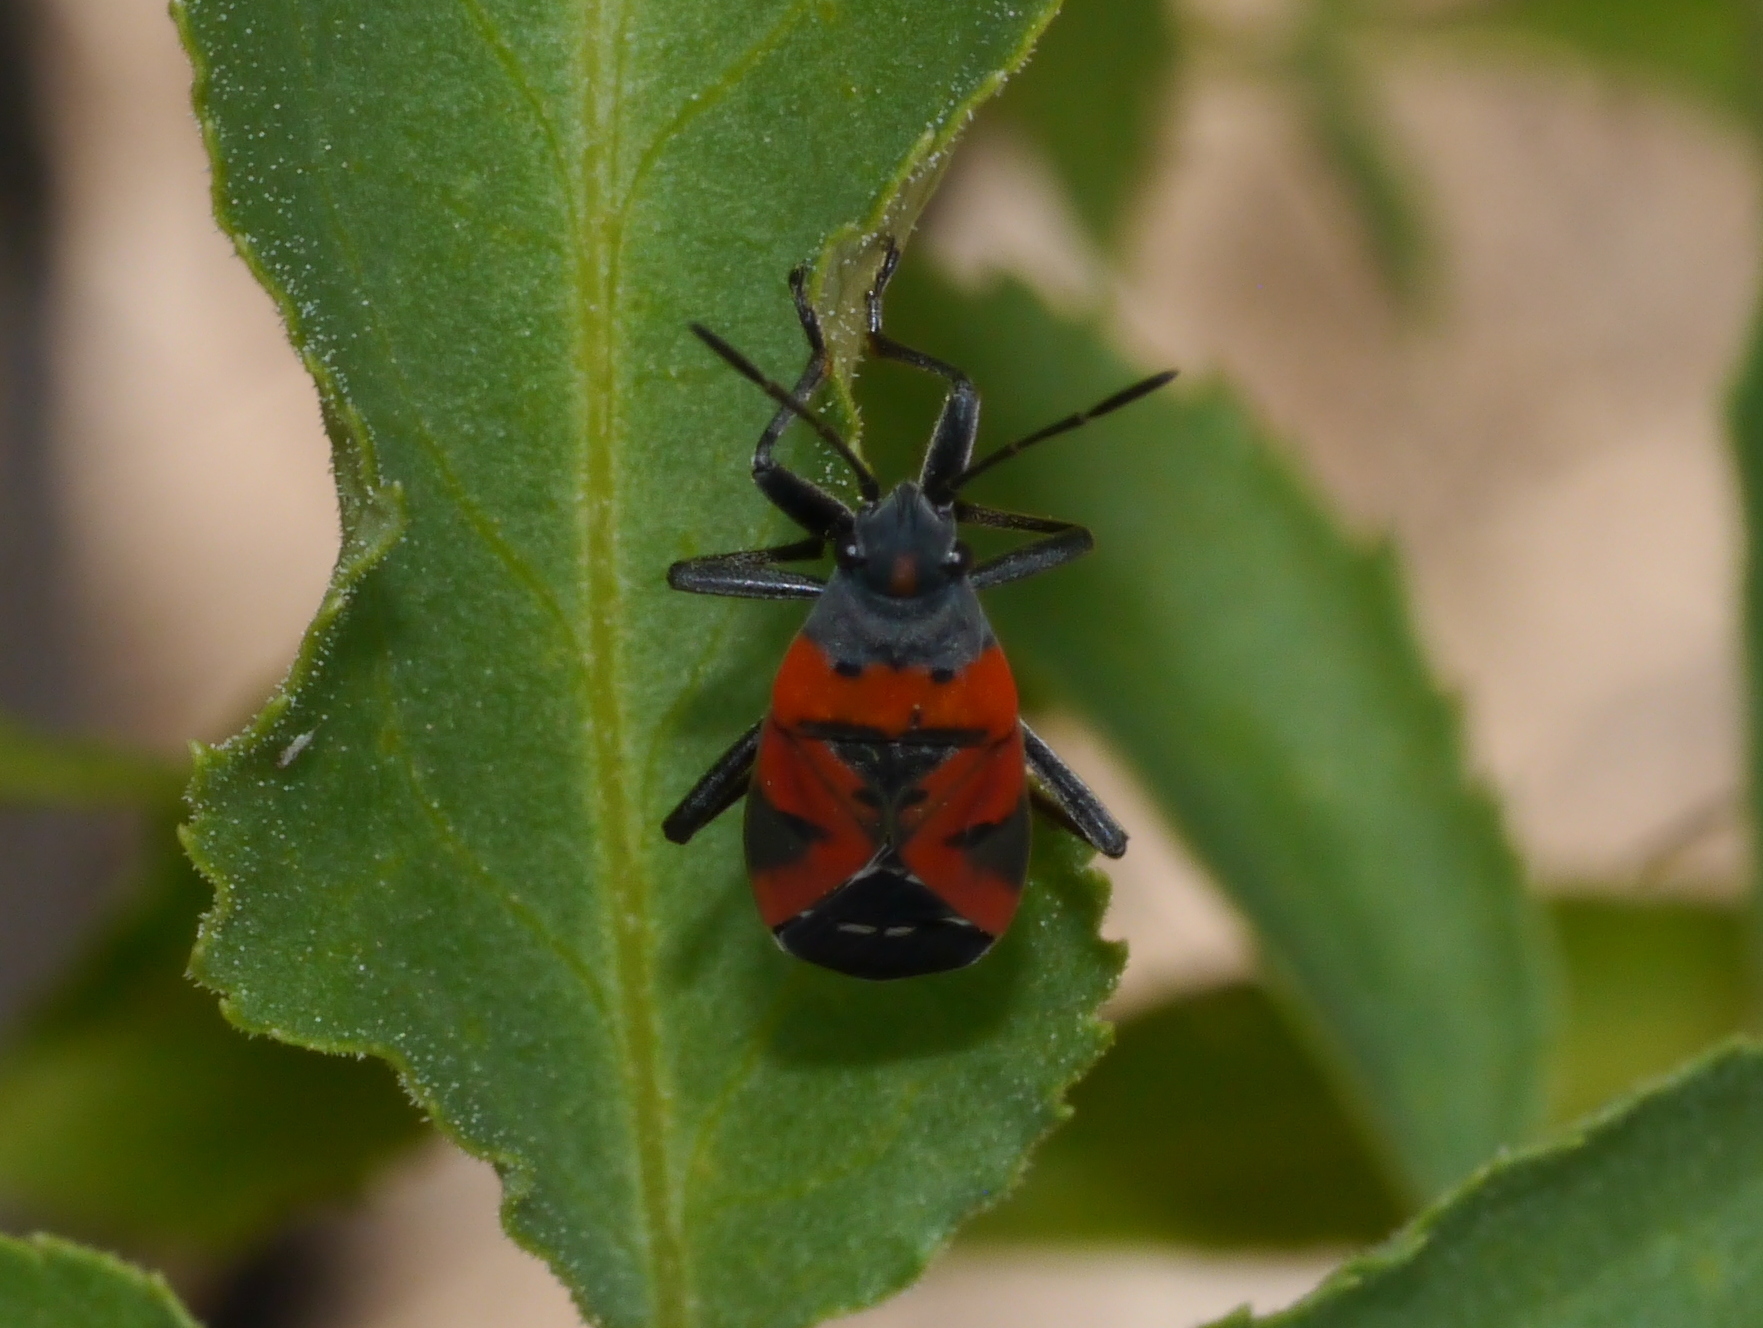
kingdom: Animalia
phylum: Arthropoda
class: Insecta
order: Hemiptera
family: Lygaeidae
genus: Lygaeus
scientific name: Lygaeus reclivatus
